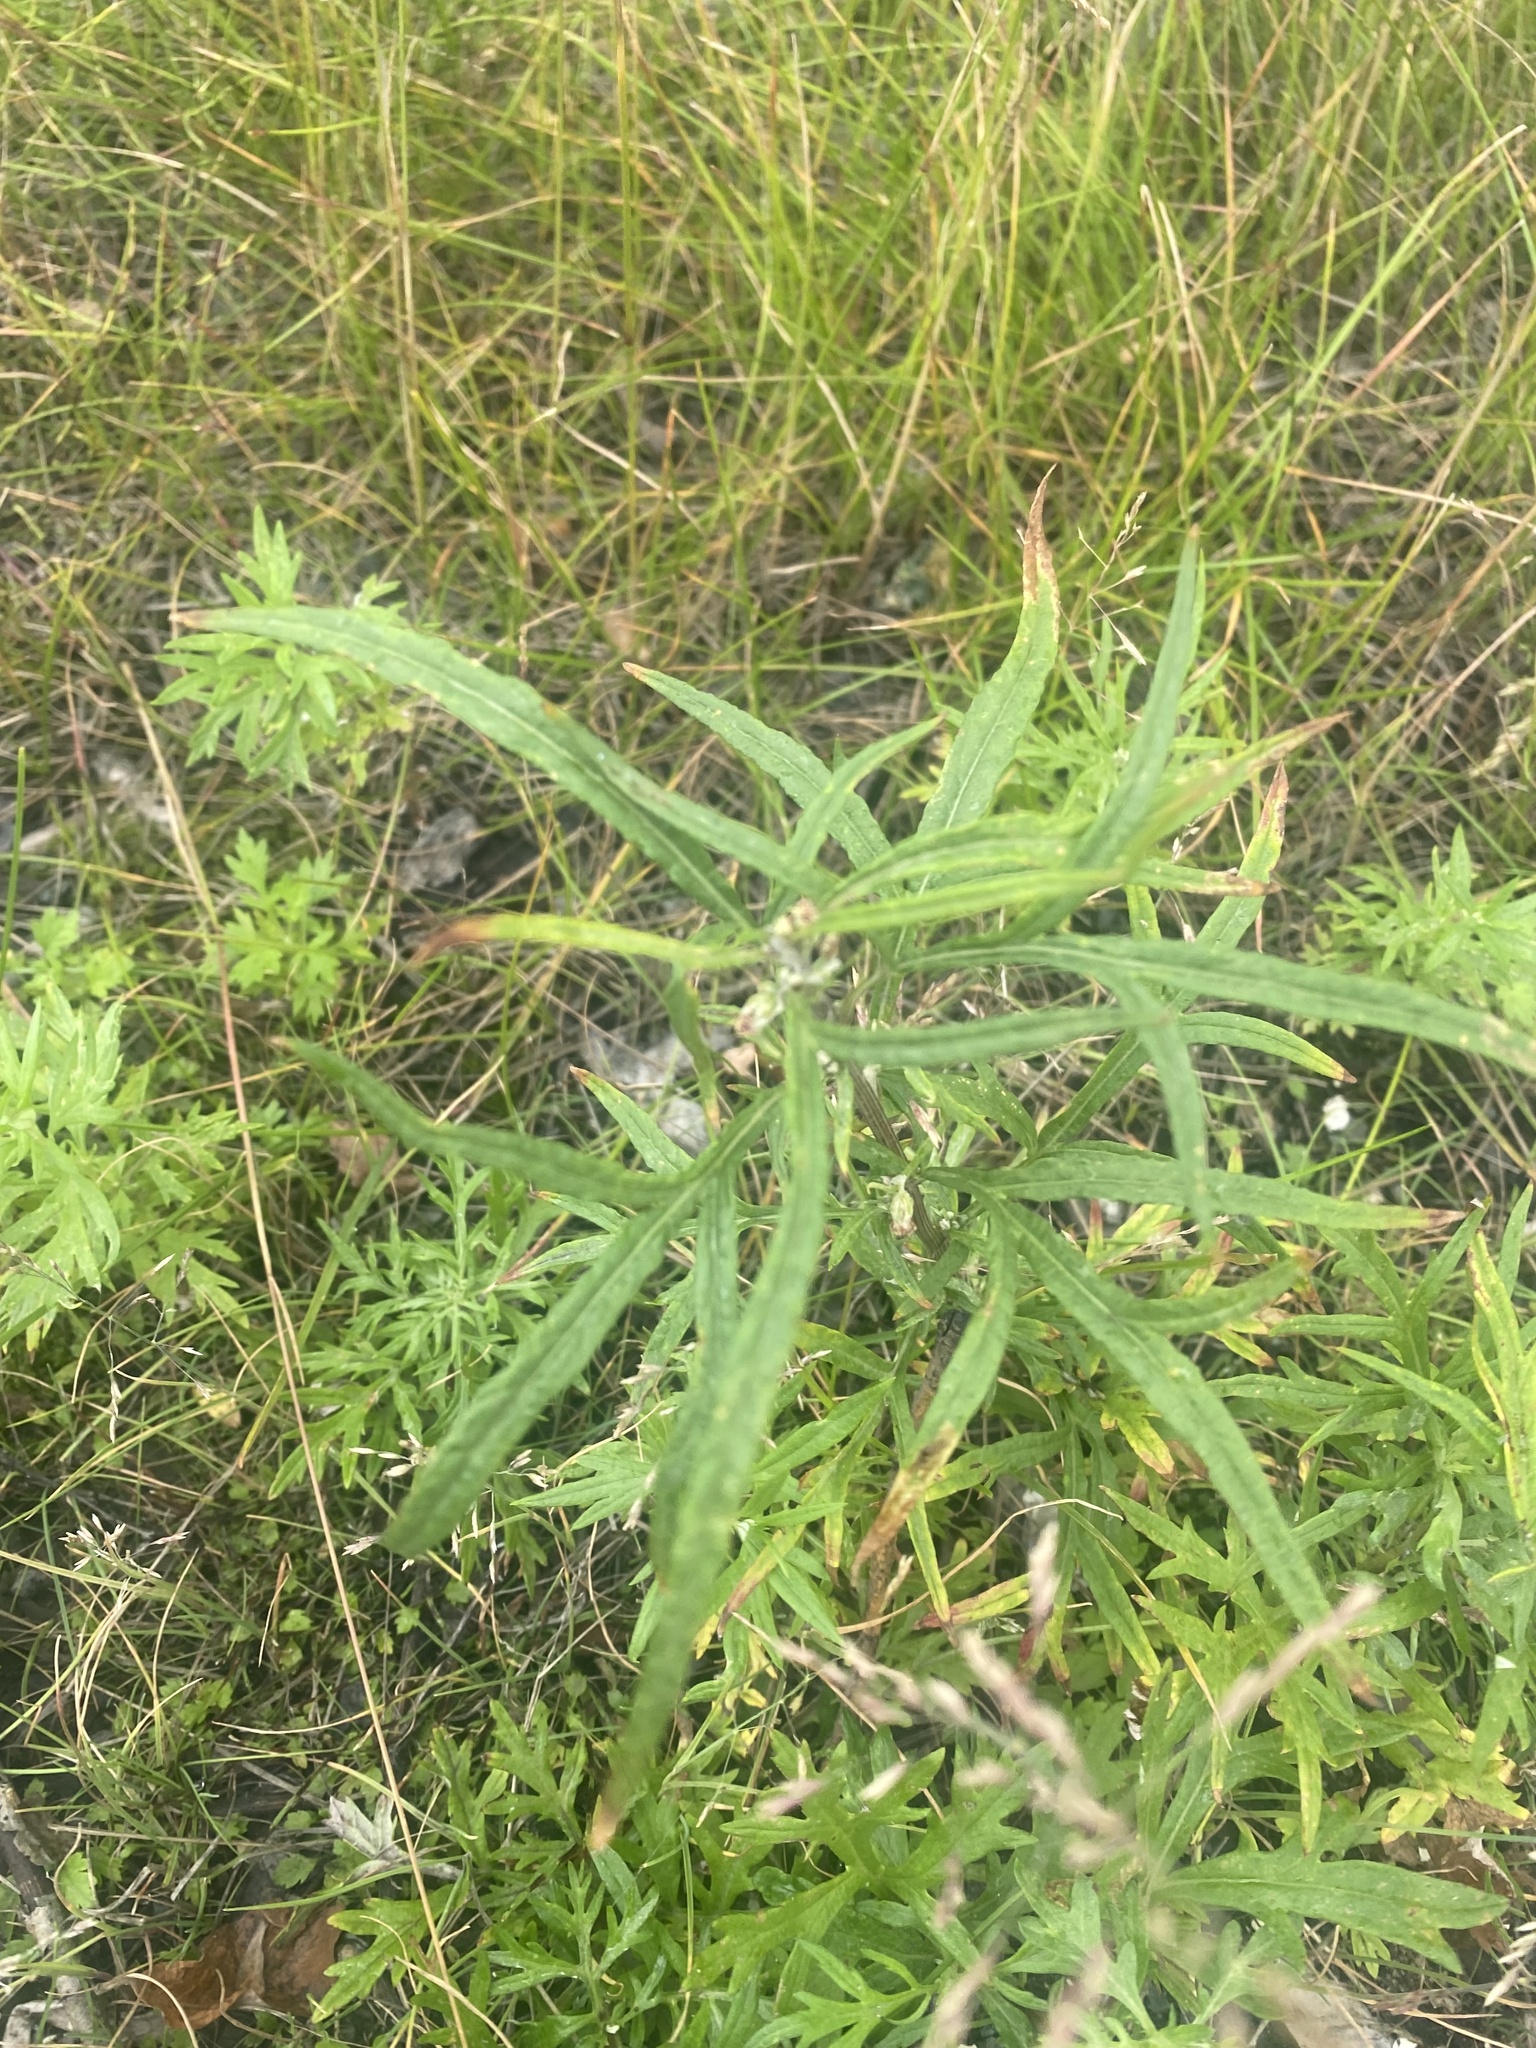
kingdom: Plantae
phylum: Tracheophyta
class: Magnoliopsida
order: Asterales
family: Asteraceae
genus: Artemisia
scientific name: Artemisia tilesii
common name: Aleutian mugwort
